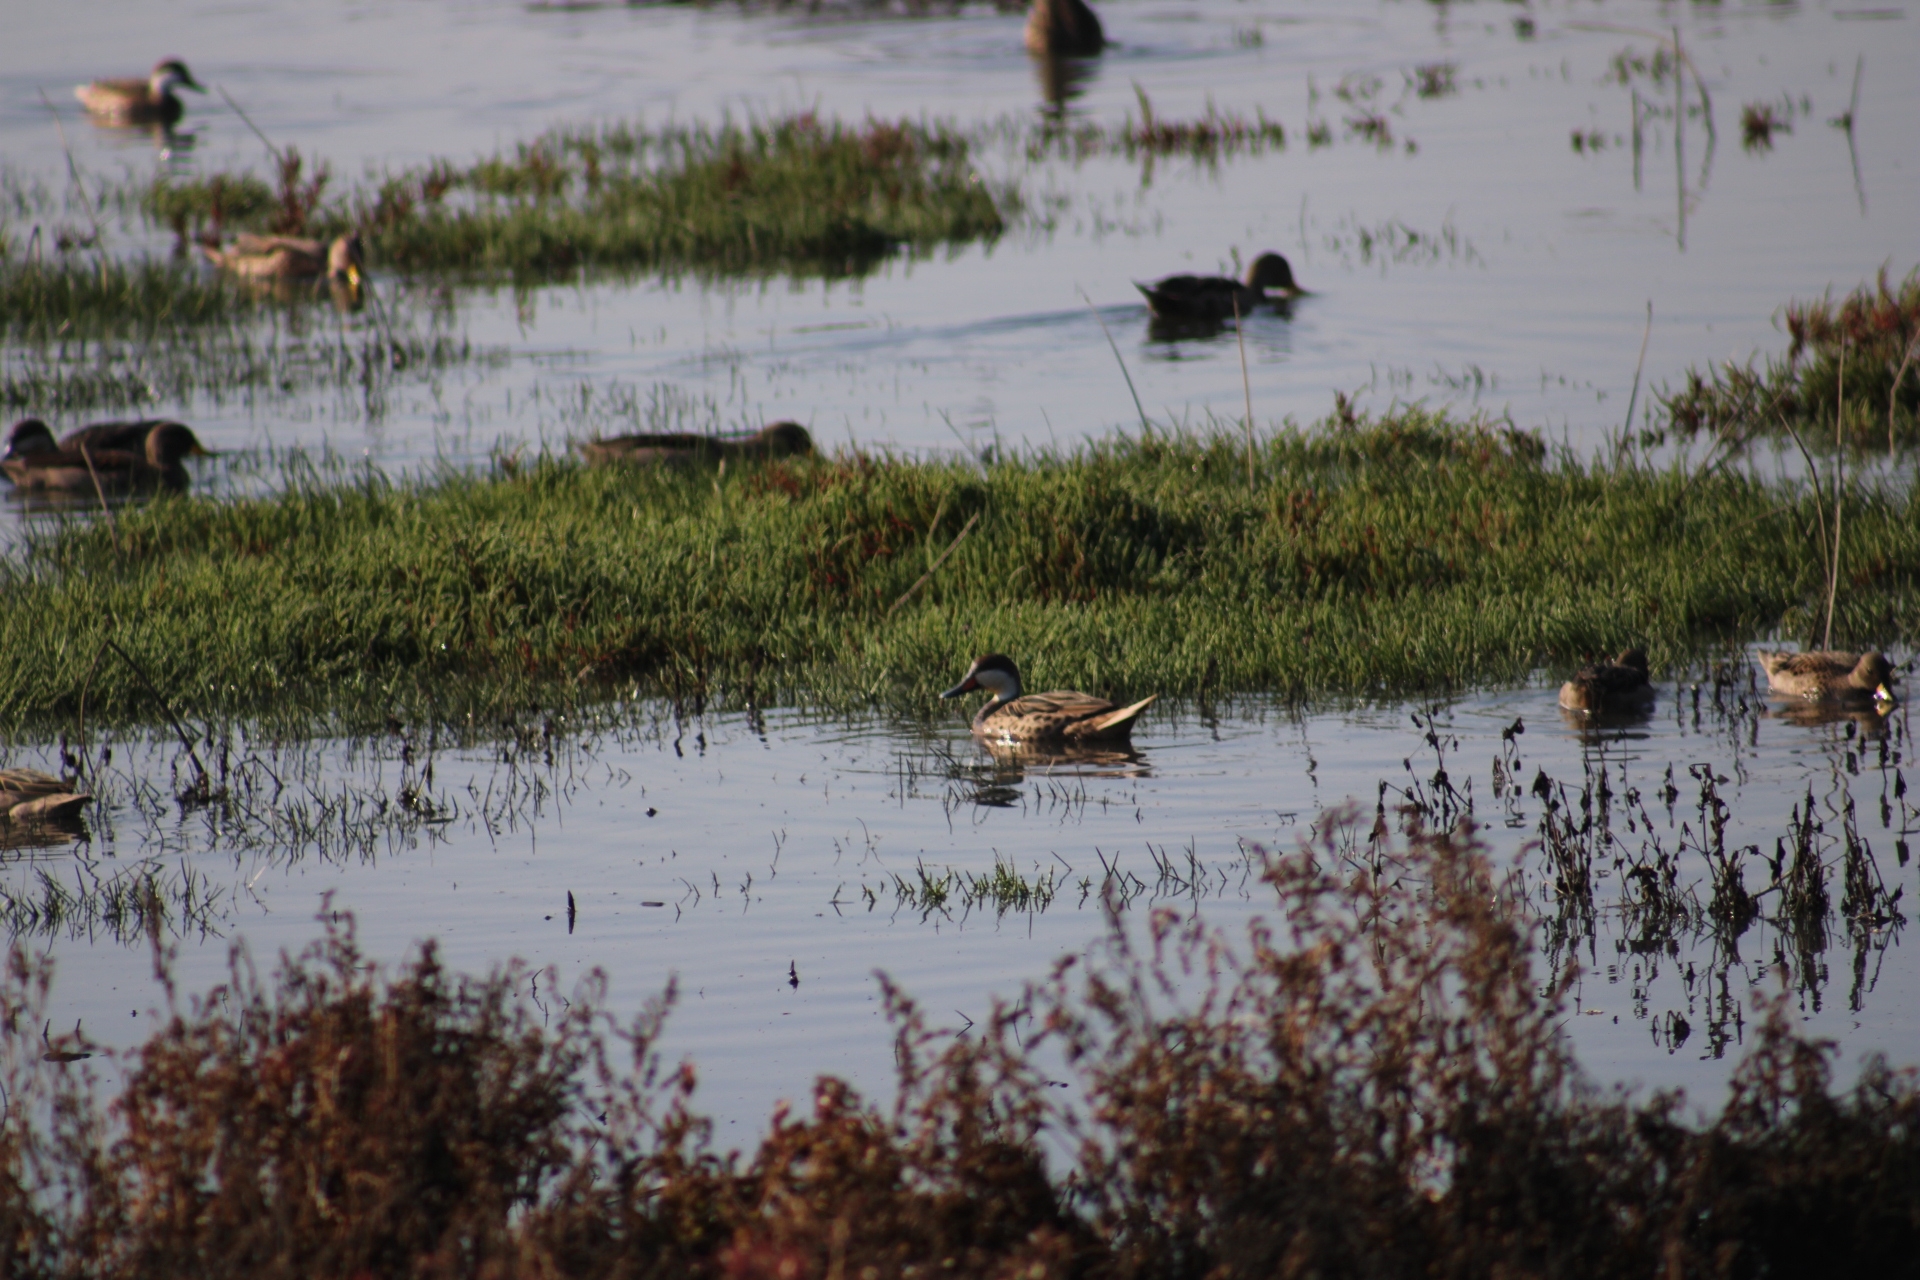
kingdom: Animalia
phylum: Chordata
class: Aves
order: Anseriformes
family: Anatidae
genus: Anas
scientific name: Anas bahamensis
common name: White-cheeked pintail
